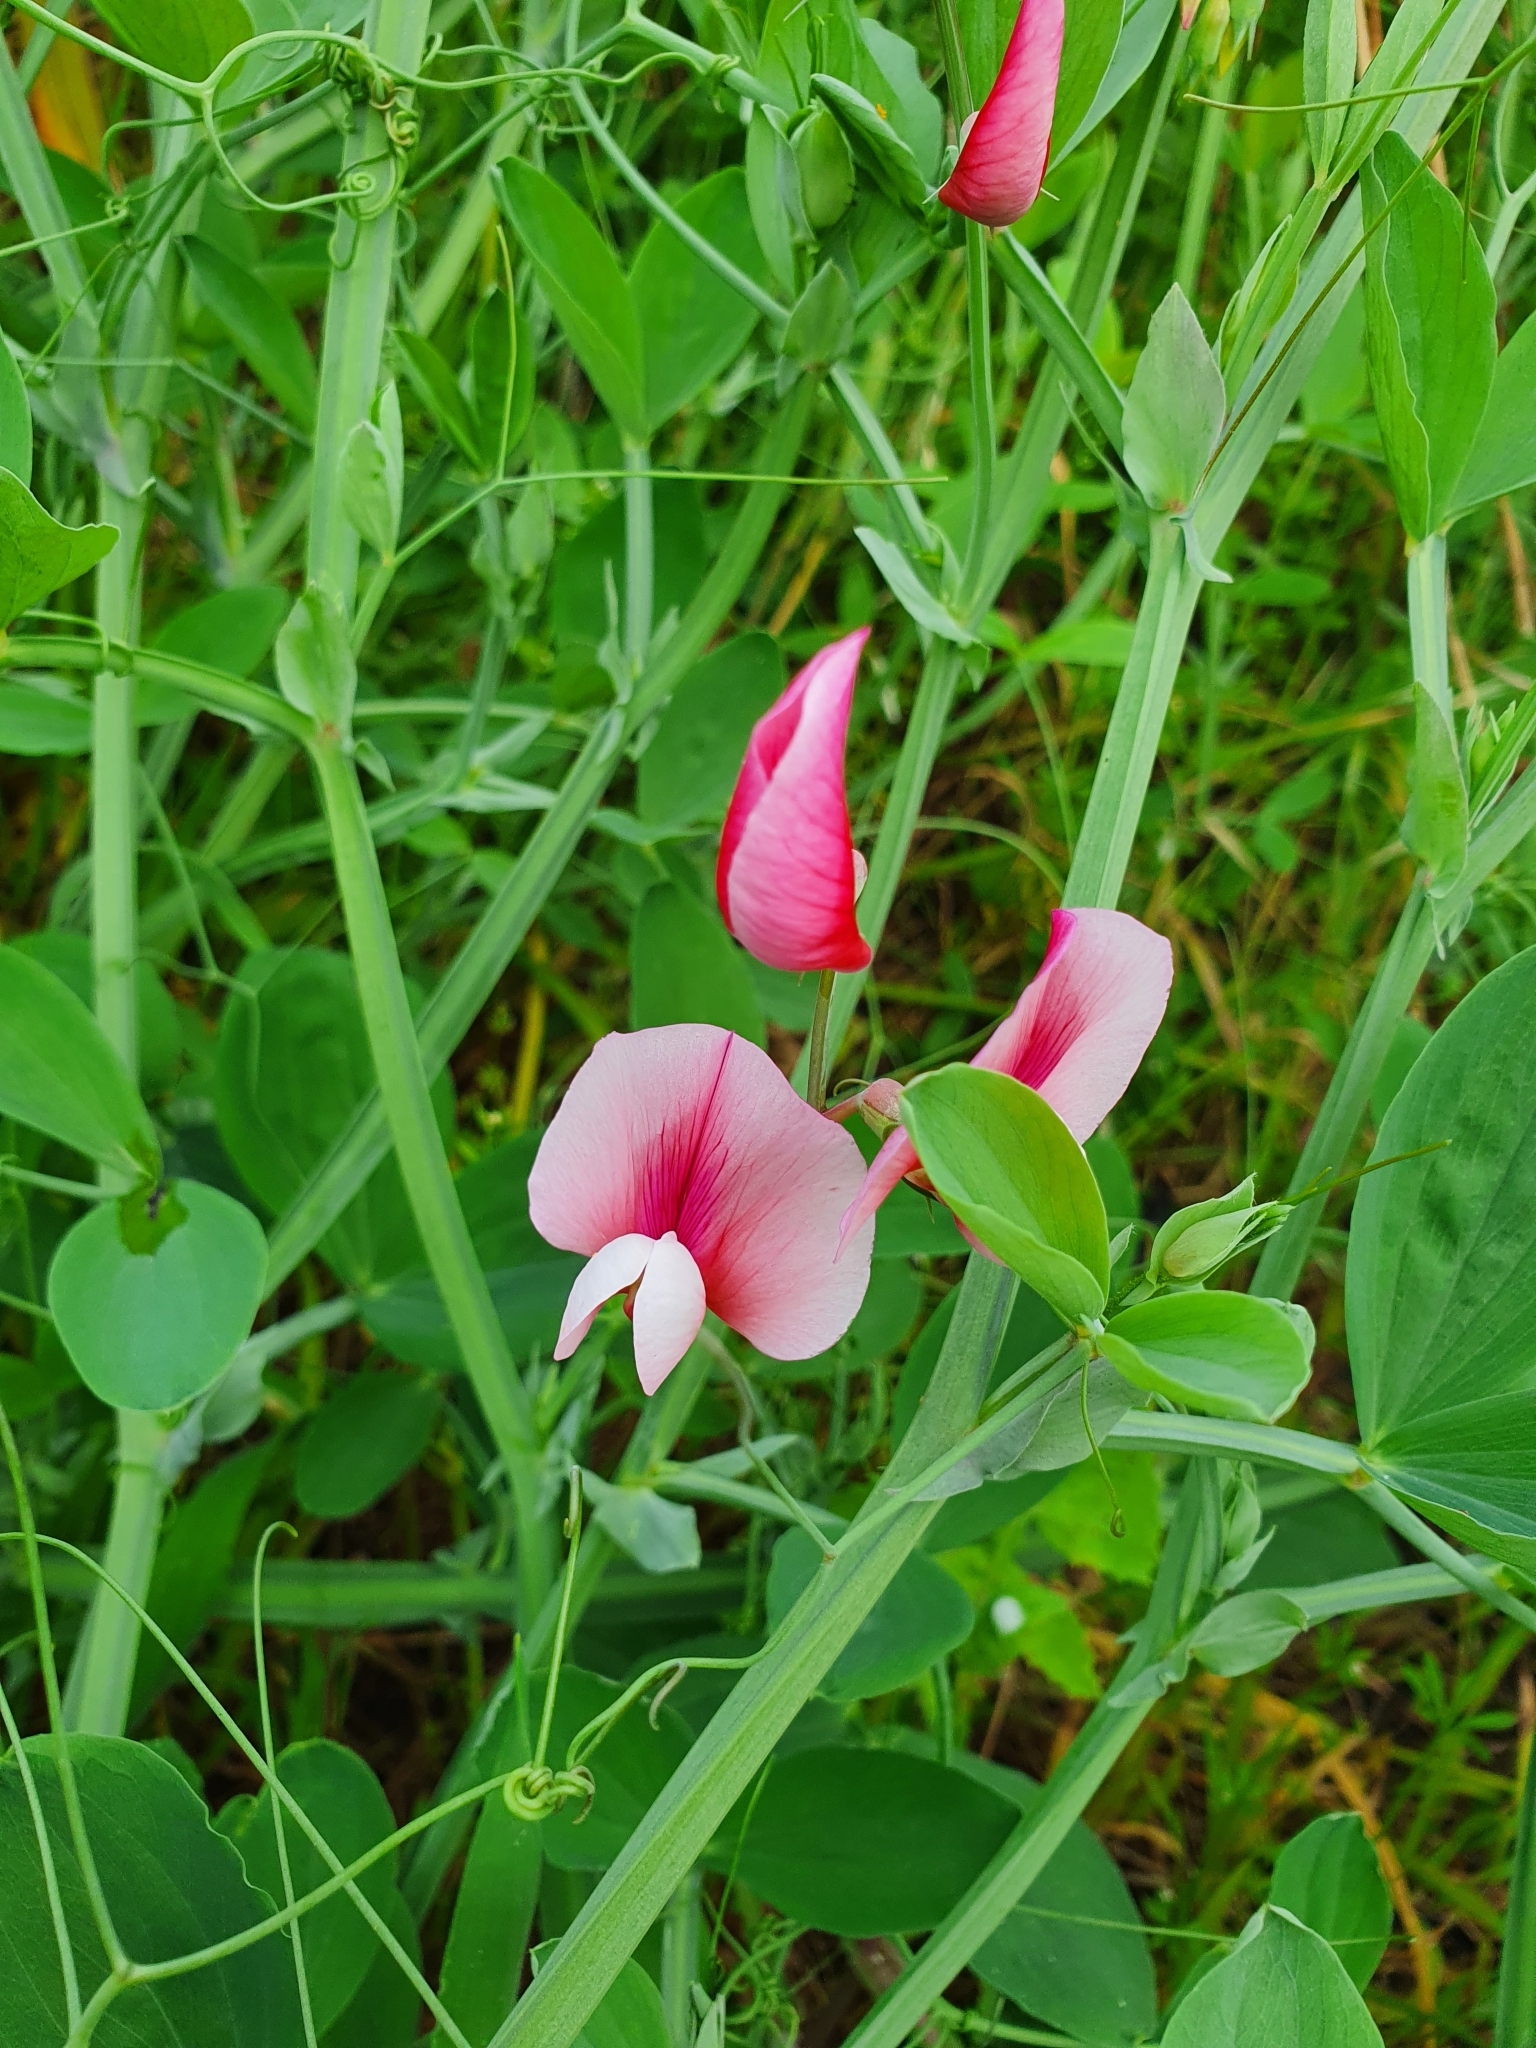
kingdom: Plantae
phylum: Tracheophyta
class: Magnoliopsida
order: Fabales
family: Fabaceae
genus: Lathyrus
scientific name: Lathyrus tingitanus
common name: Tangier pea
